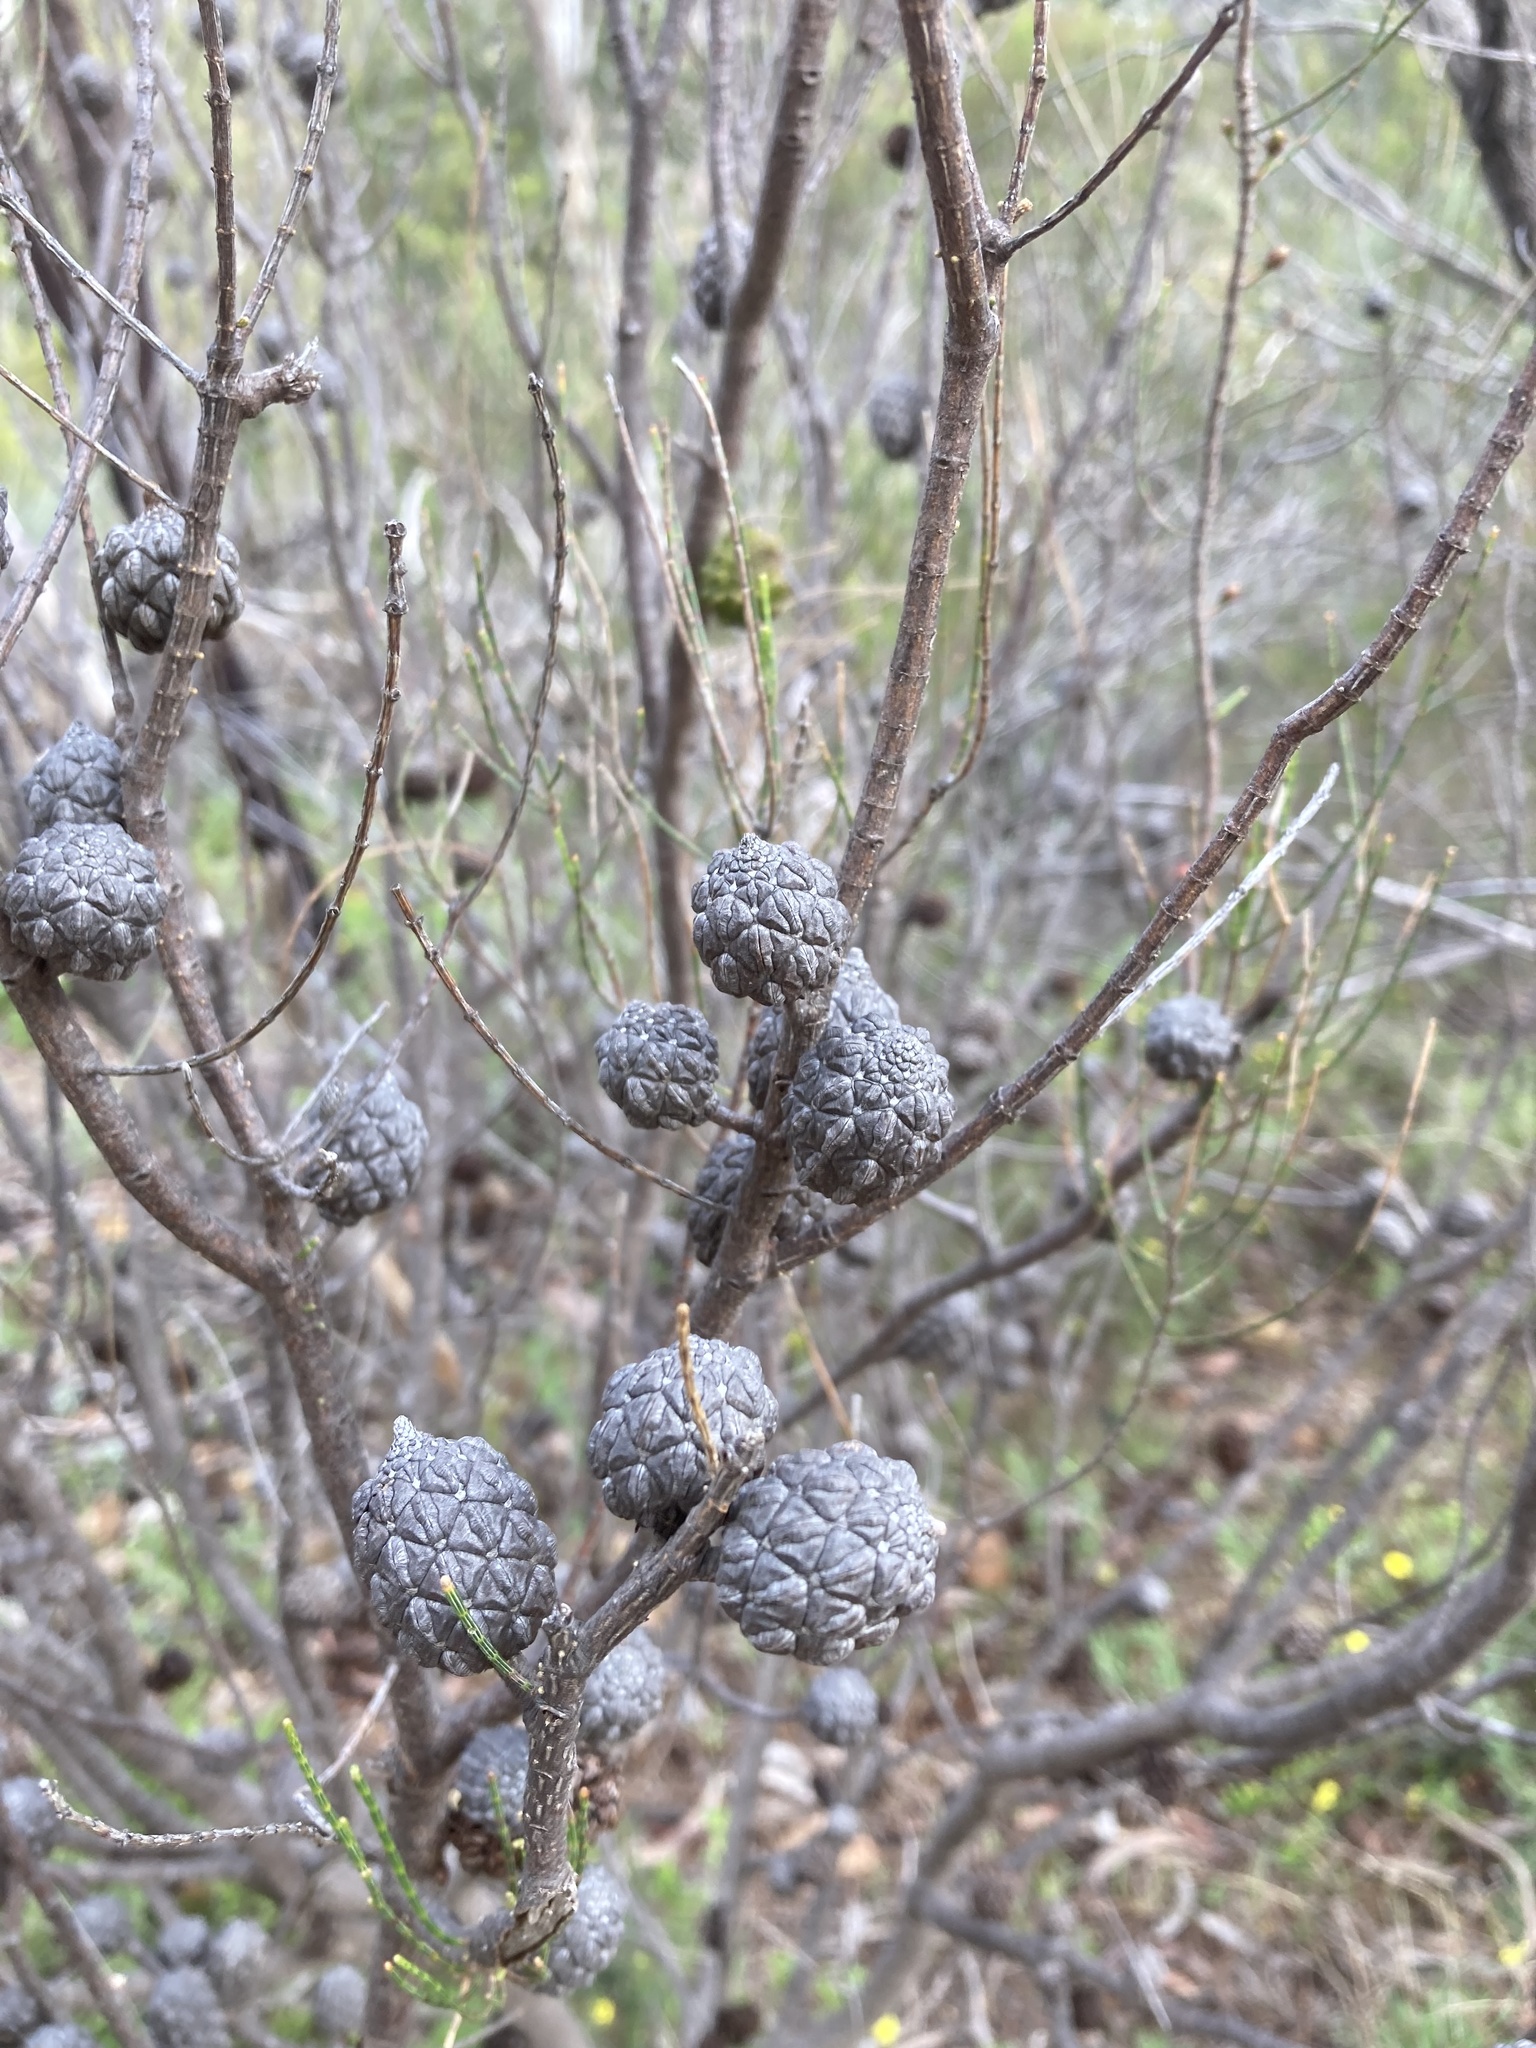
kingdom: Plantae
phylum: Tracheophyta
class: Magnoliopsida
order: Fagales
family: Casuarinaceae
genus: Allocasuarina
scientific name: Allocasuarina muelleriana
